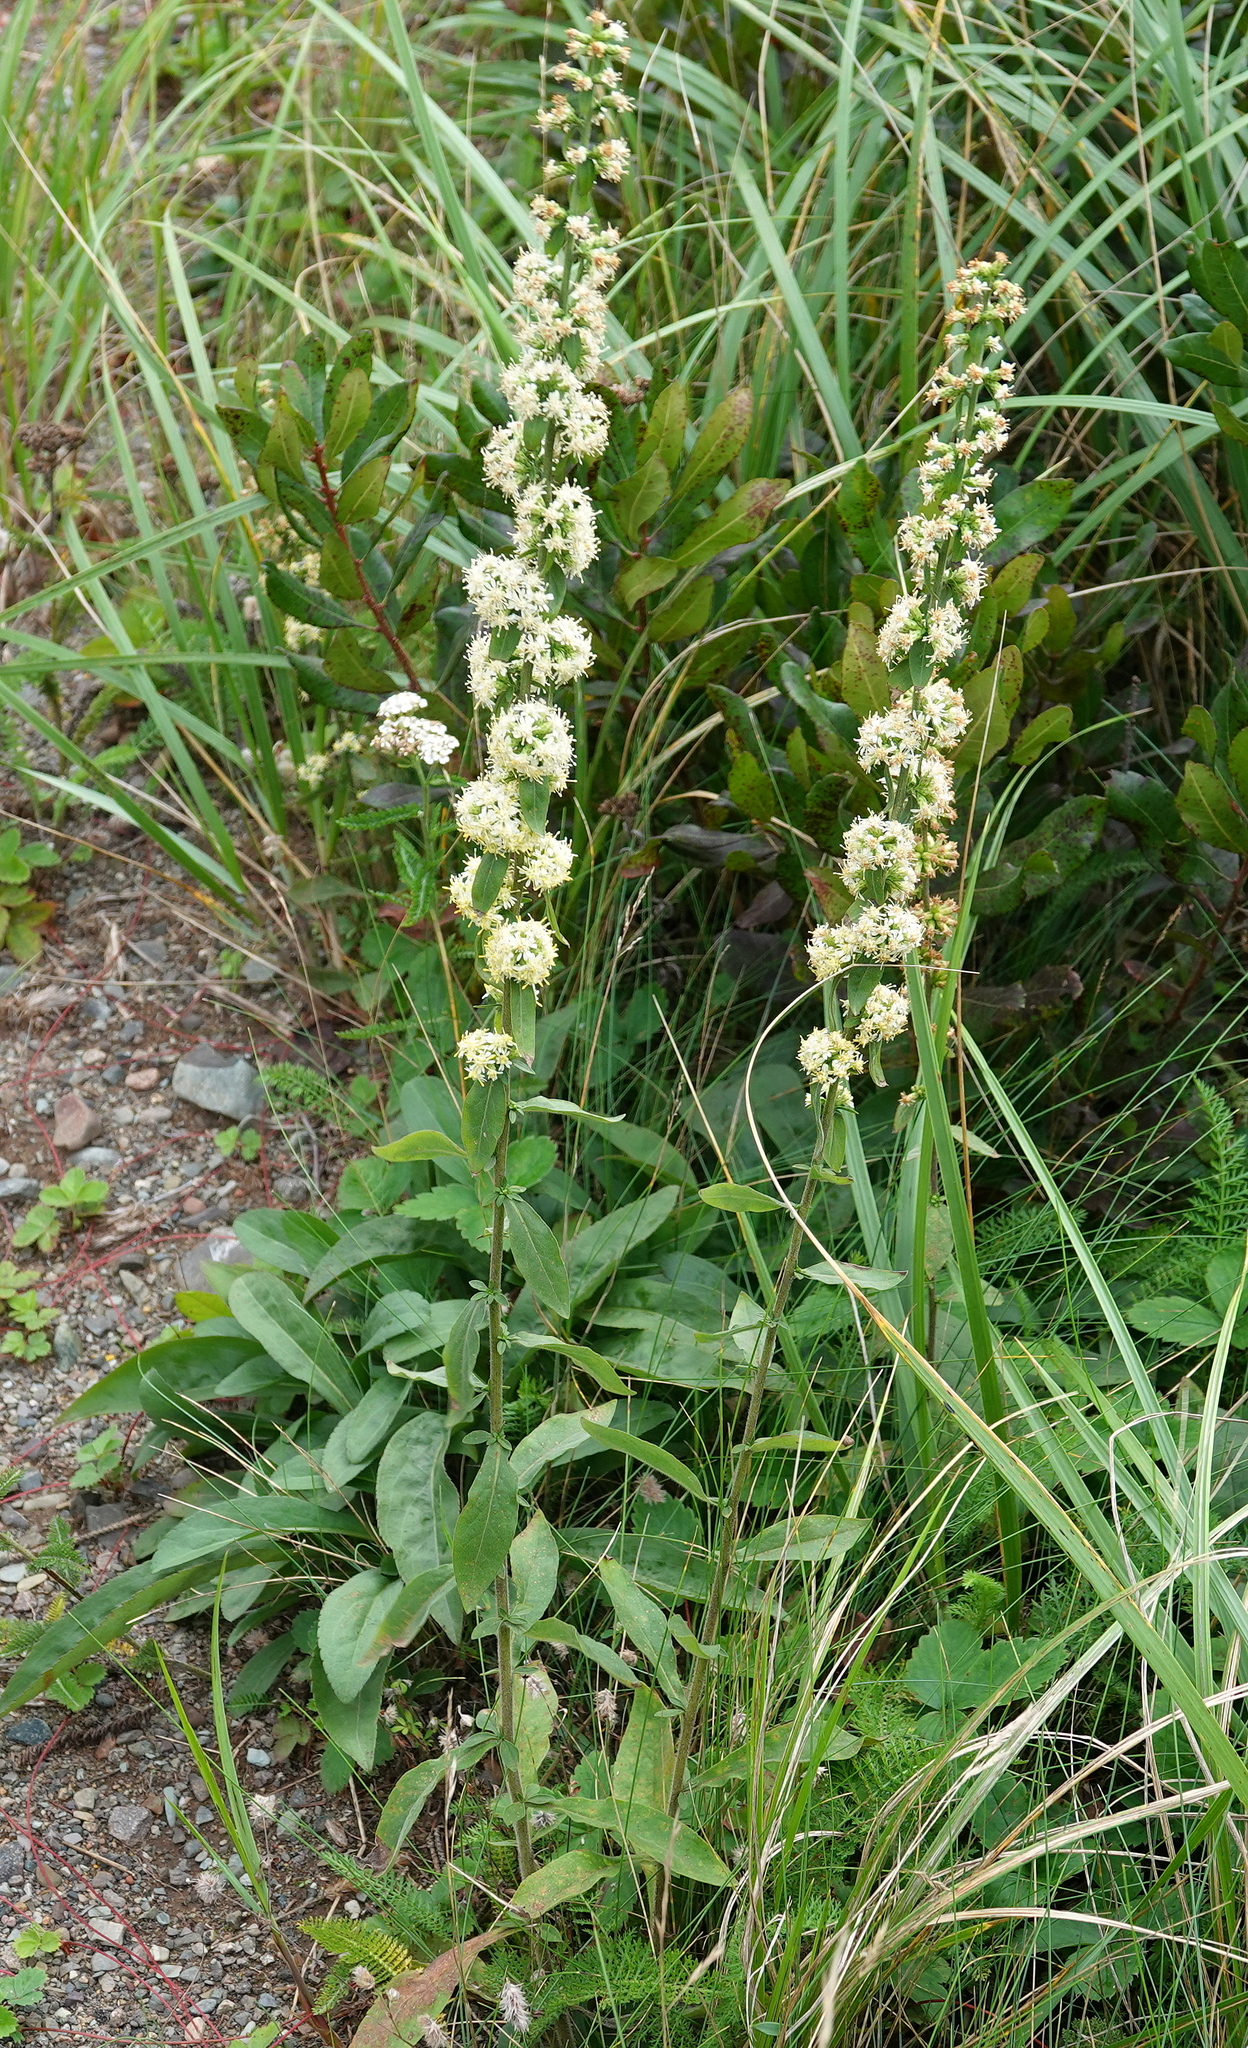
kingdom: Plantae
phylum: Tracheophyta
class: Magnoliopsida
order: Asterales
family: Asteraceae
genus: Solidago
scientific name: Solidago bicolor
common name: Silverrod
